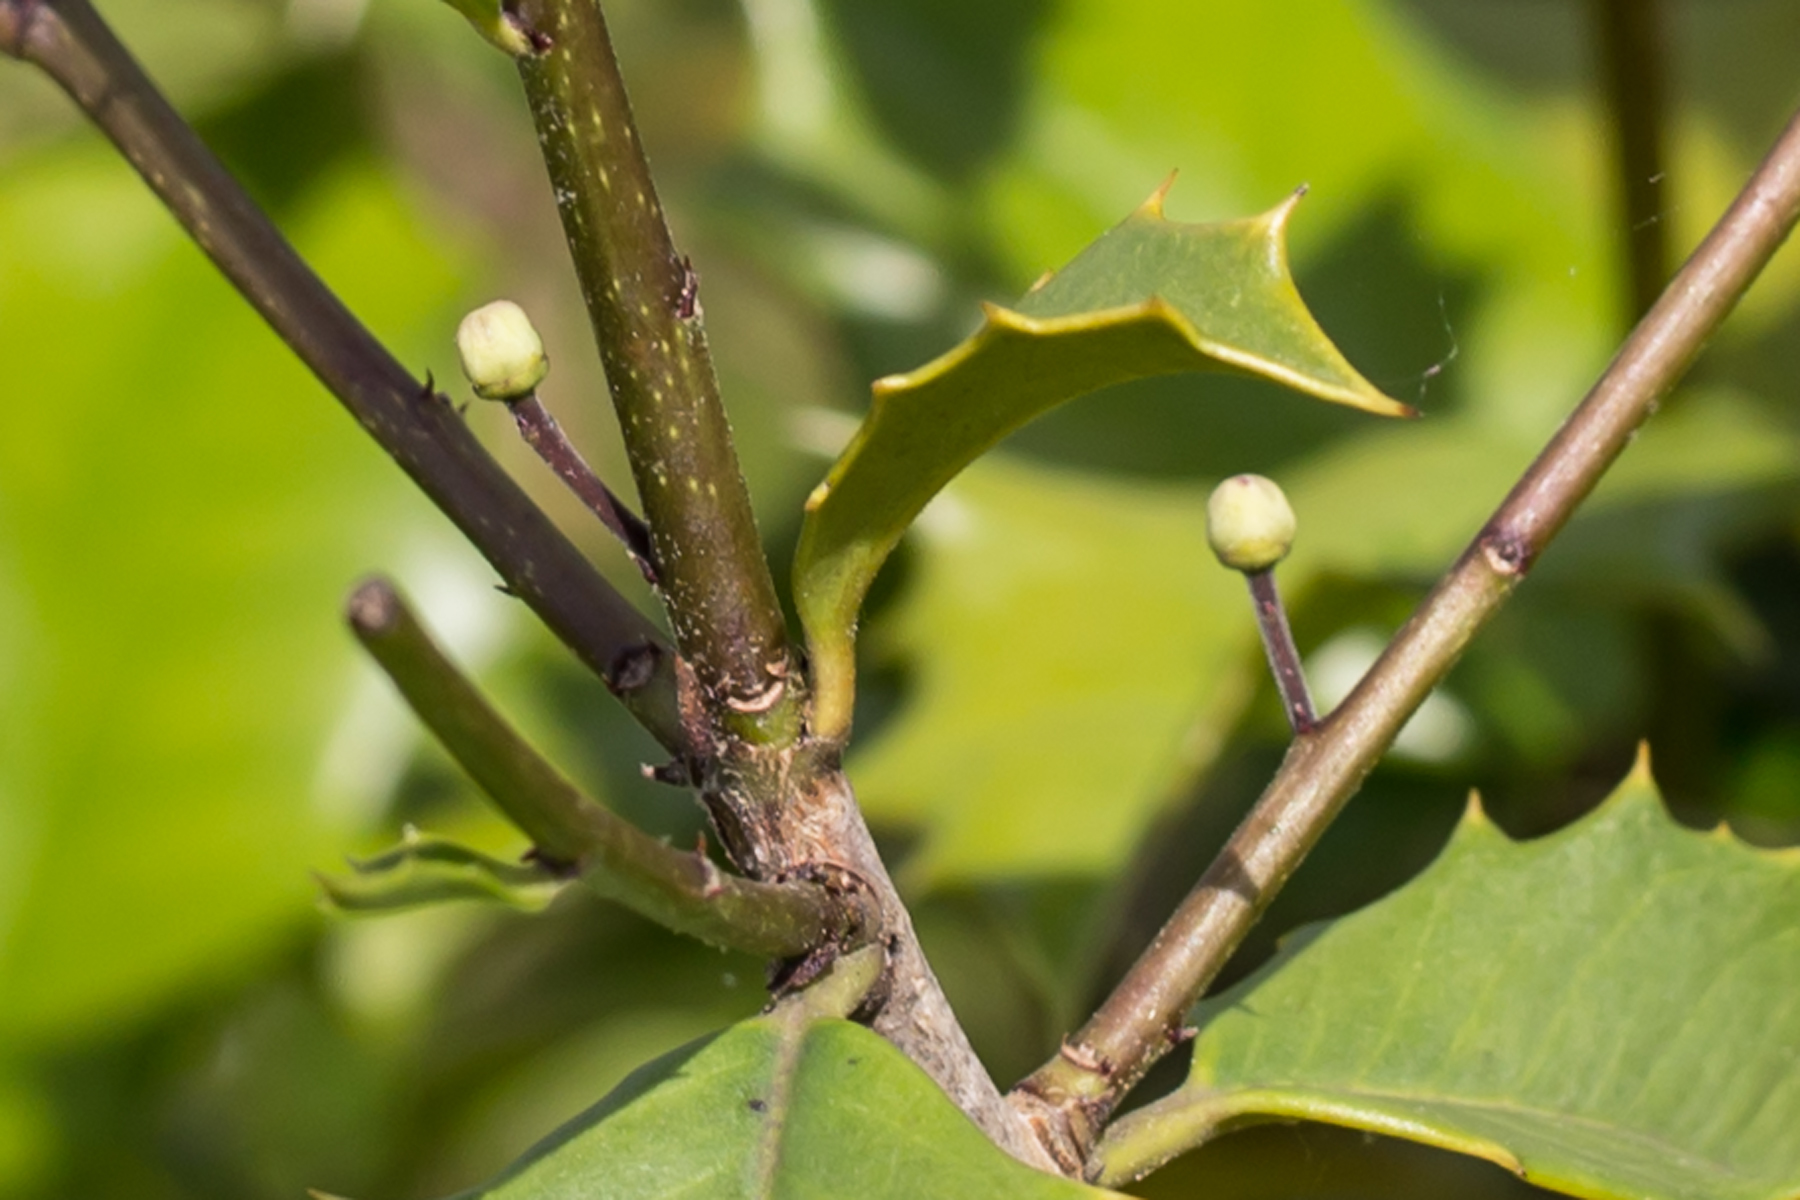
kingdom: Plantae
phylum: Tracheophyta
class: Magnoliopsida
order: Aquifoliales
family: Aquifoliaceae
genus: Ilex
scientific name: Ilex opaca
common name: American holly
